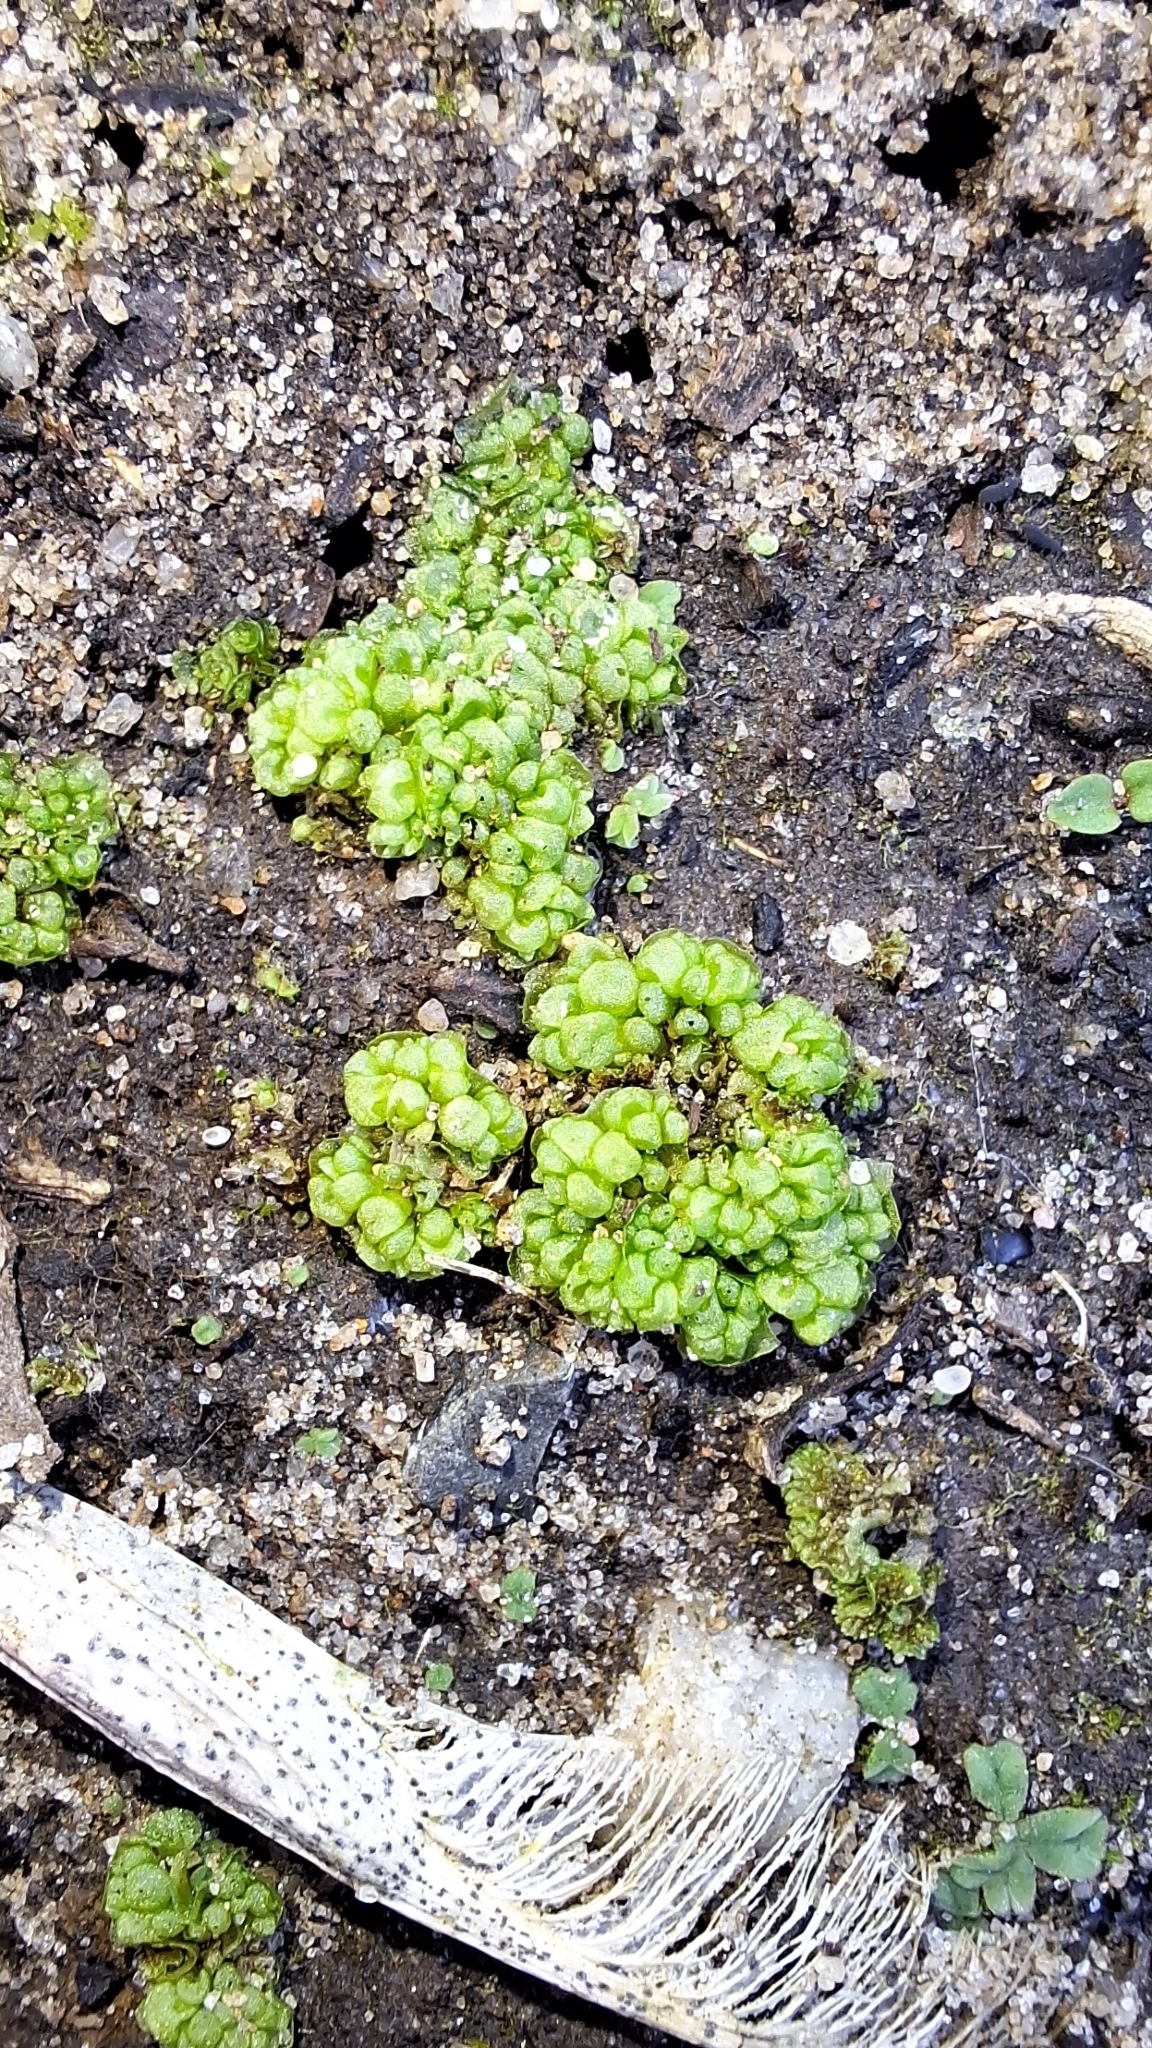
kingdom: Plantae
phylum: Marchantiophyta
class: Marchantiopsida
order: Sphaerocarpales
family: Sphaerocarpaceae
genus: Sphaerocarpos
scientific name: Sphaerocarpos texanus
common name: Texas balloonwort
